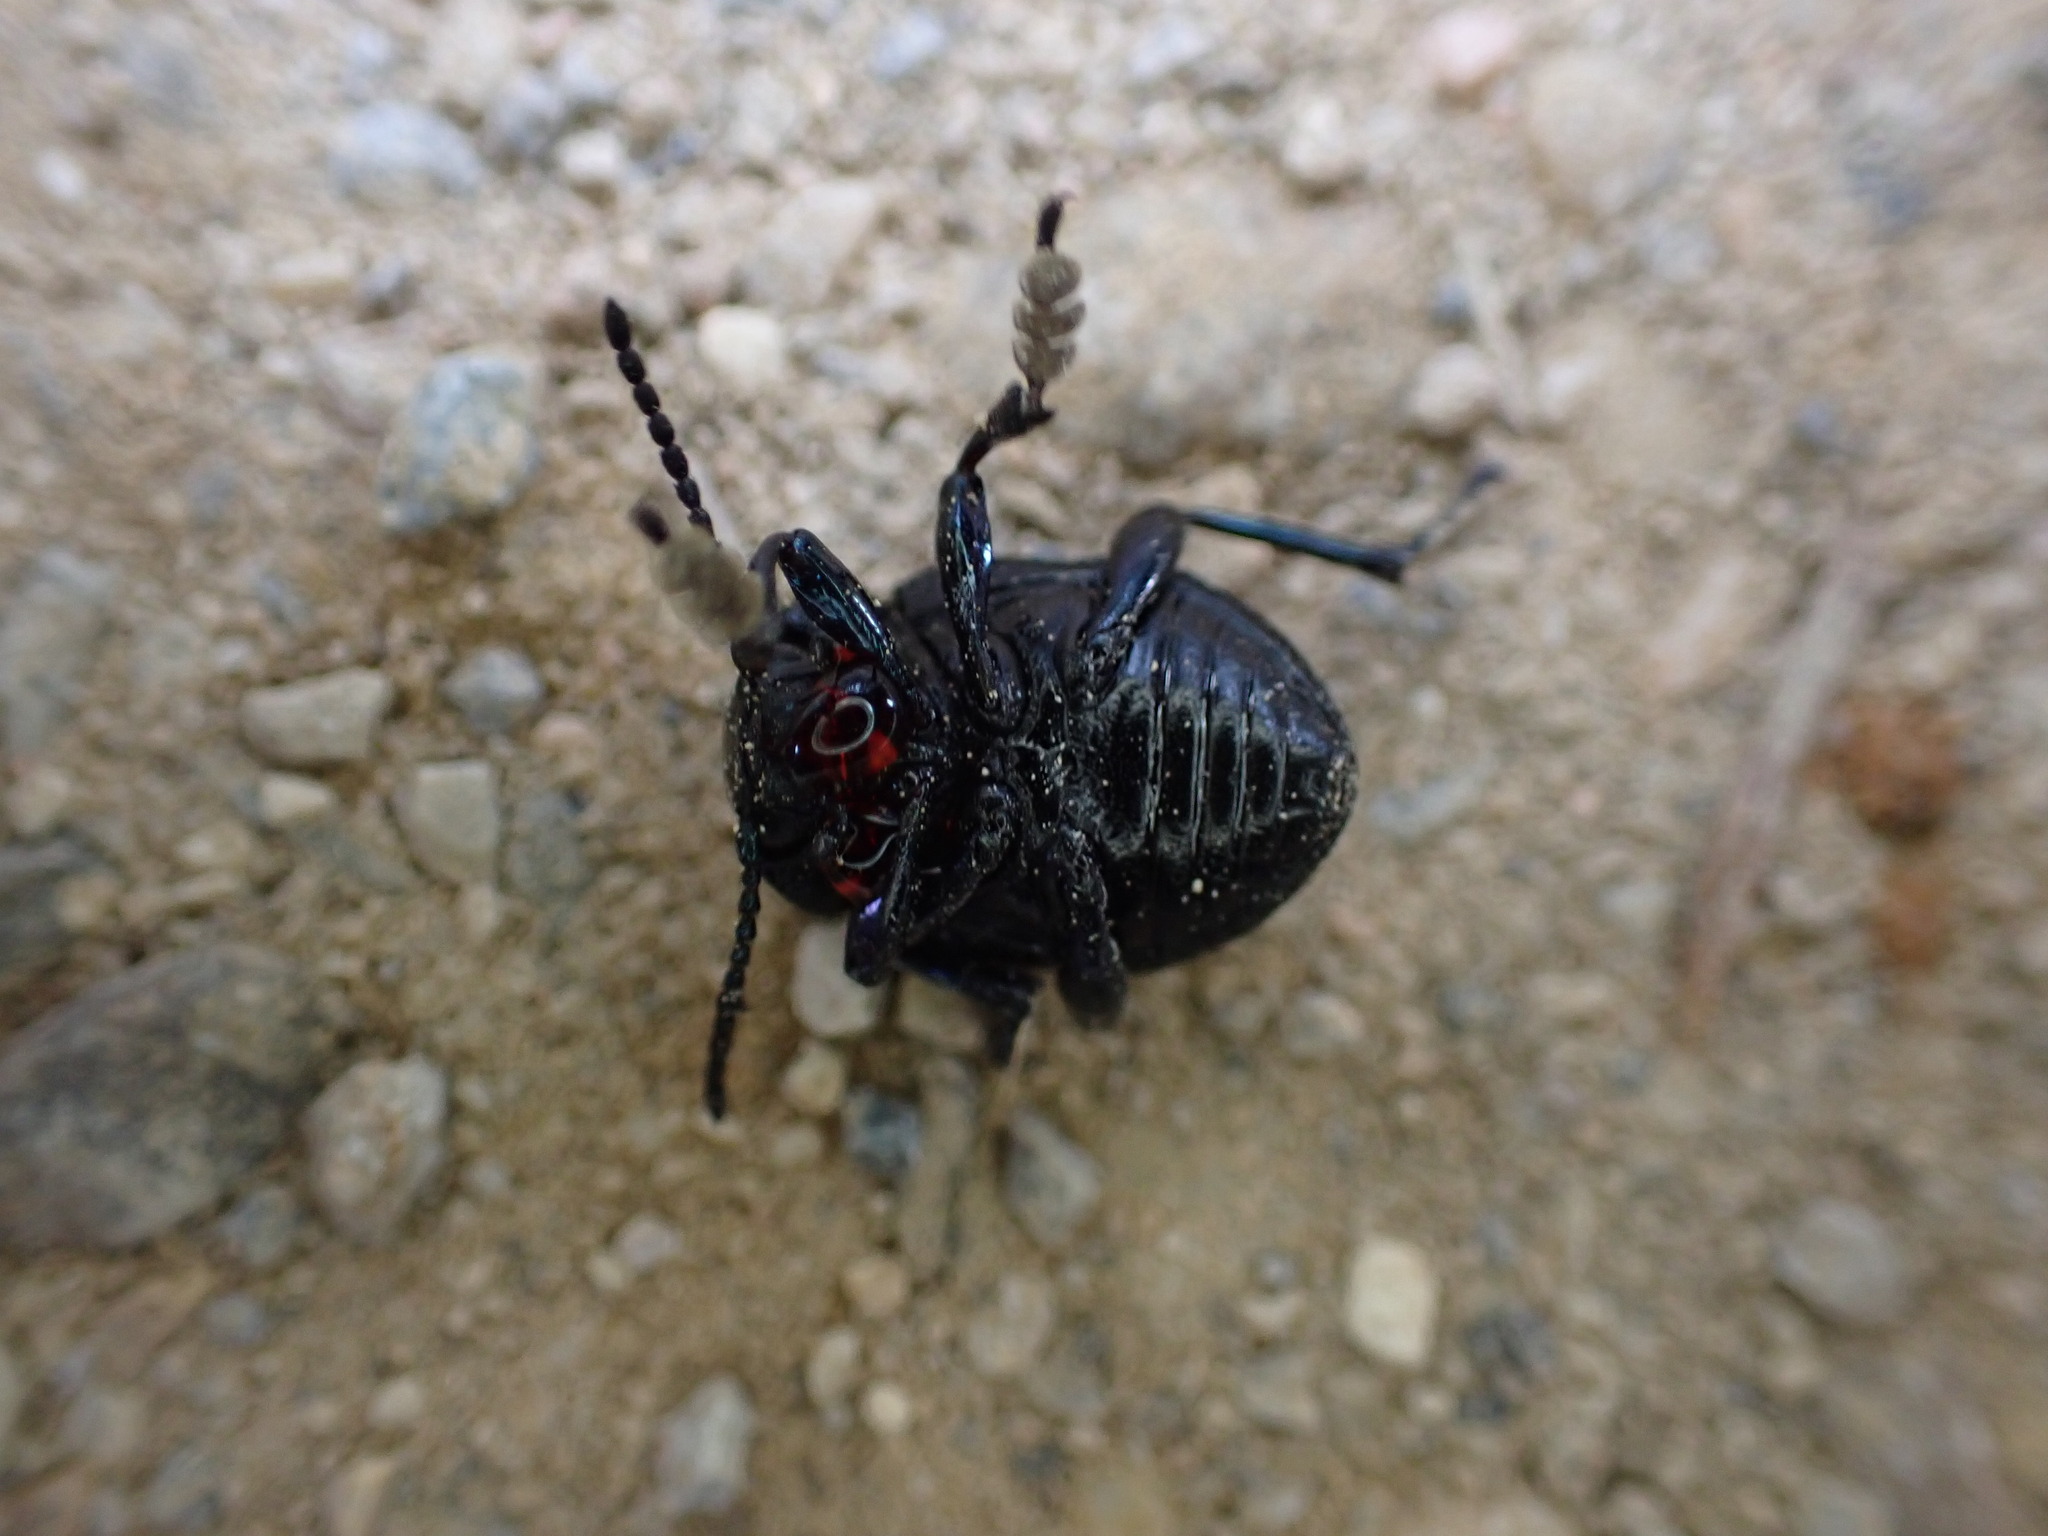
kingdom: Animalia
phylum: Arthropoda
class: Insecta
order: Coleoptera
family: Chrysomelidae
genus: Timarcha
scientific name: Timarcha goettingensis
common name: Small bloody-nosed beetle
